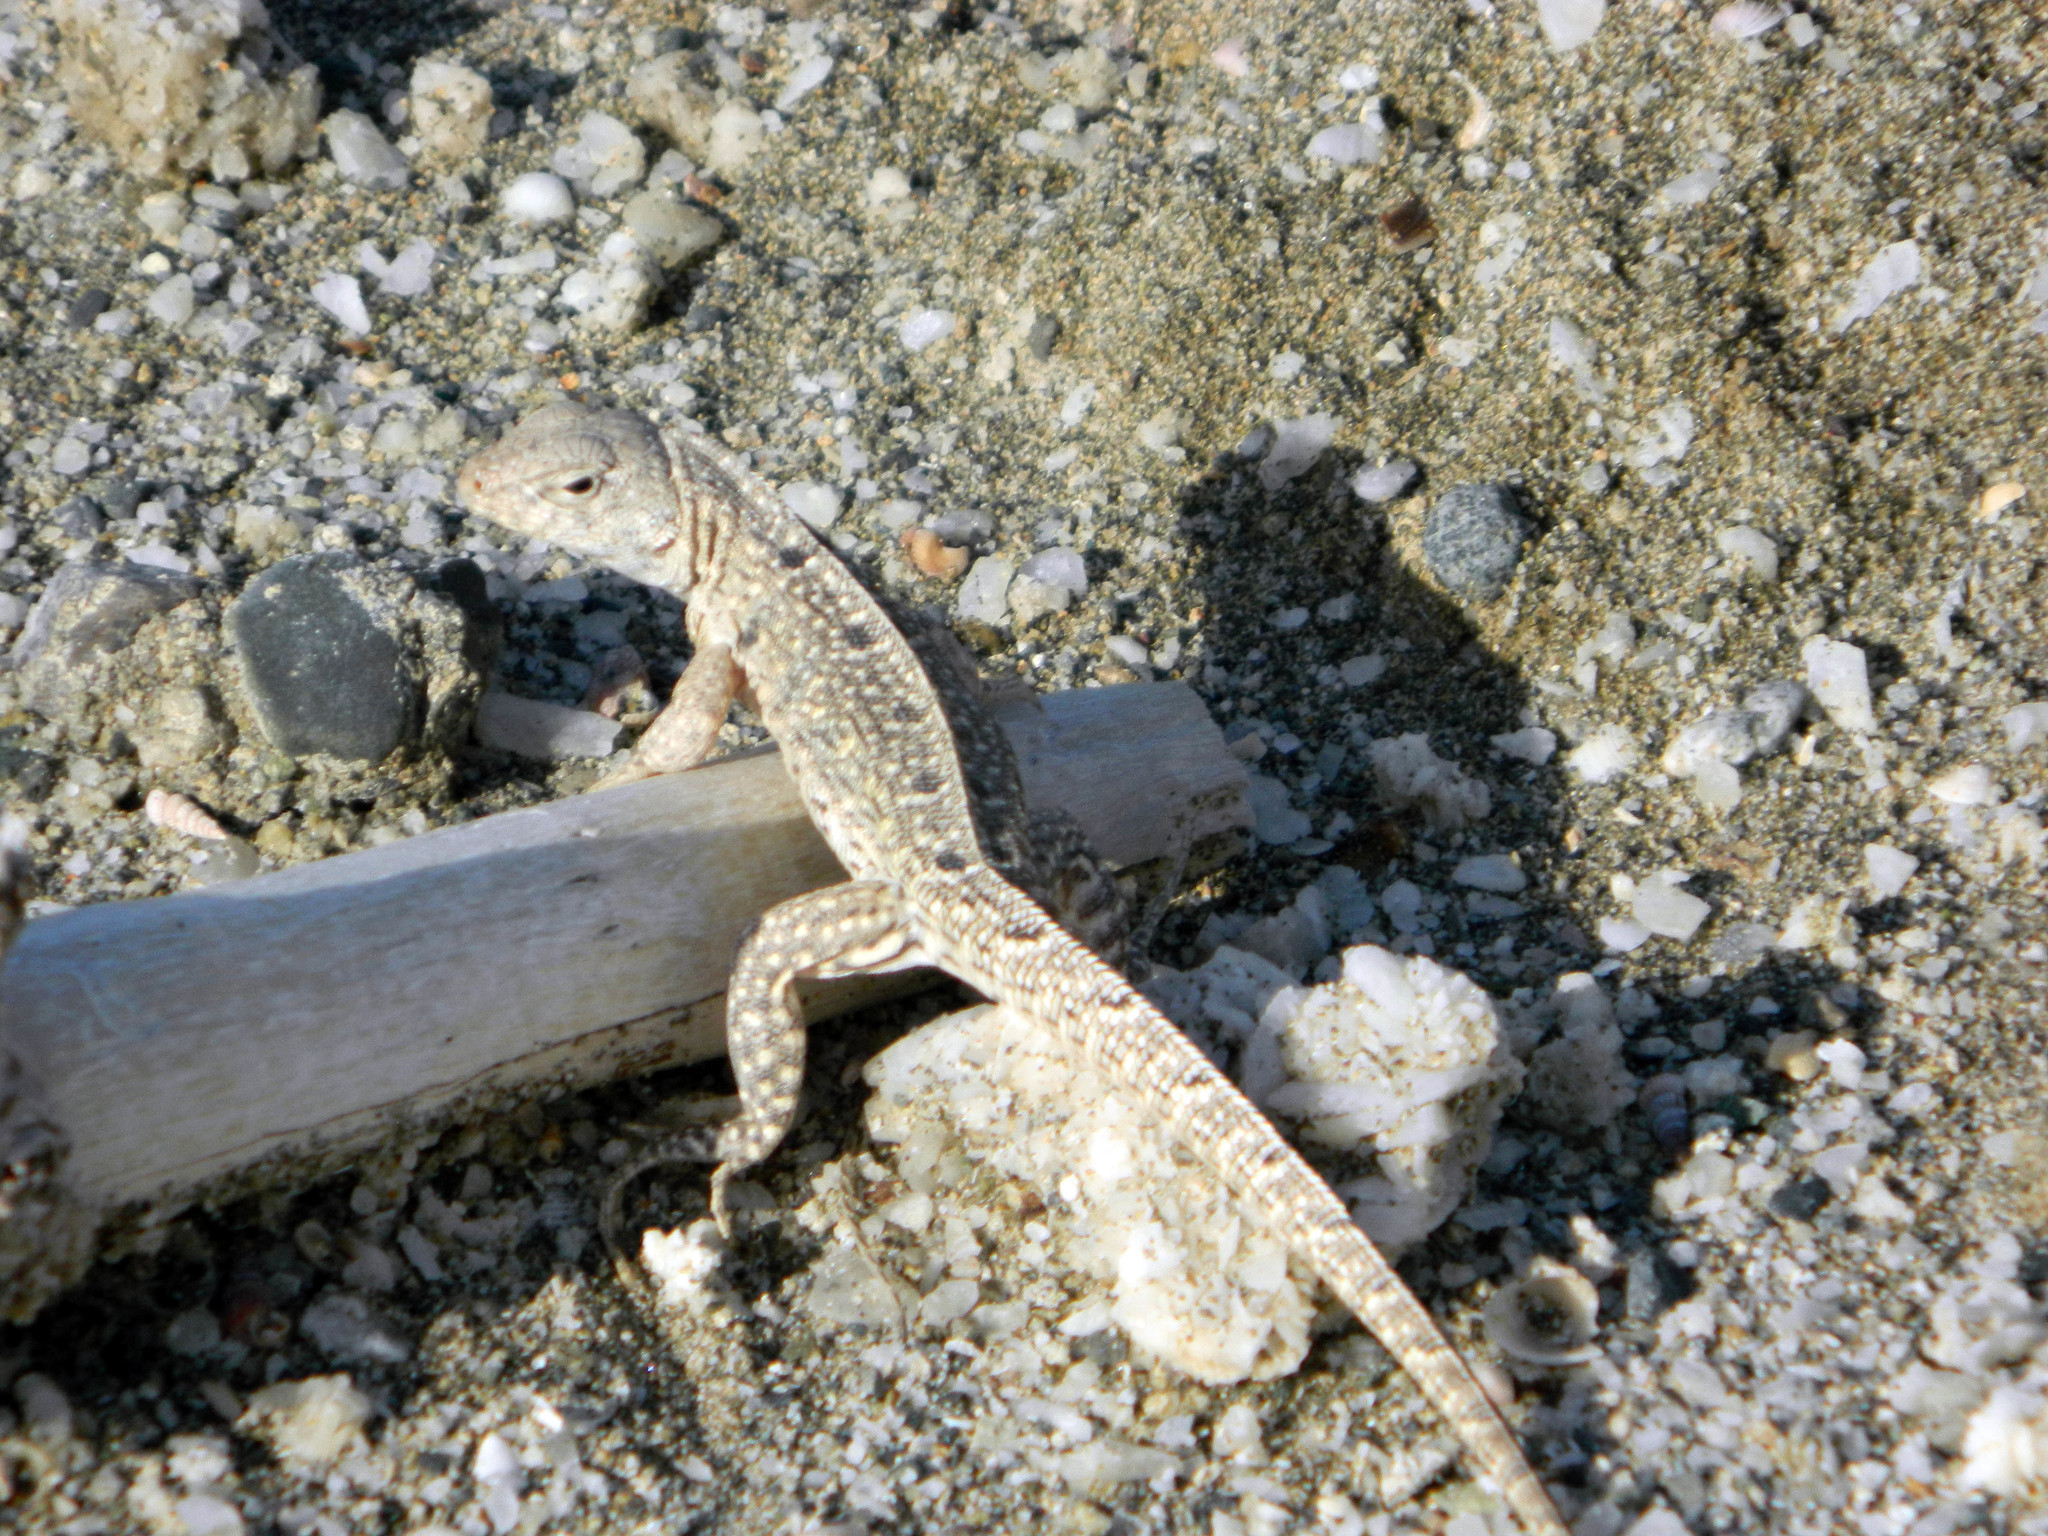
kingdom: Animalia
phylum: Chordata
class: Squamata
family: Leiocephalidae
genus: Leiocephalus
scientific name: Leiocephalus sixtoi
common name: Hispaniolan dune curlytail
